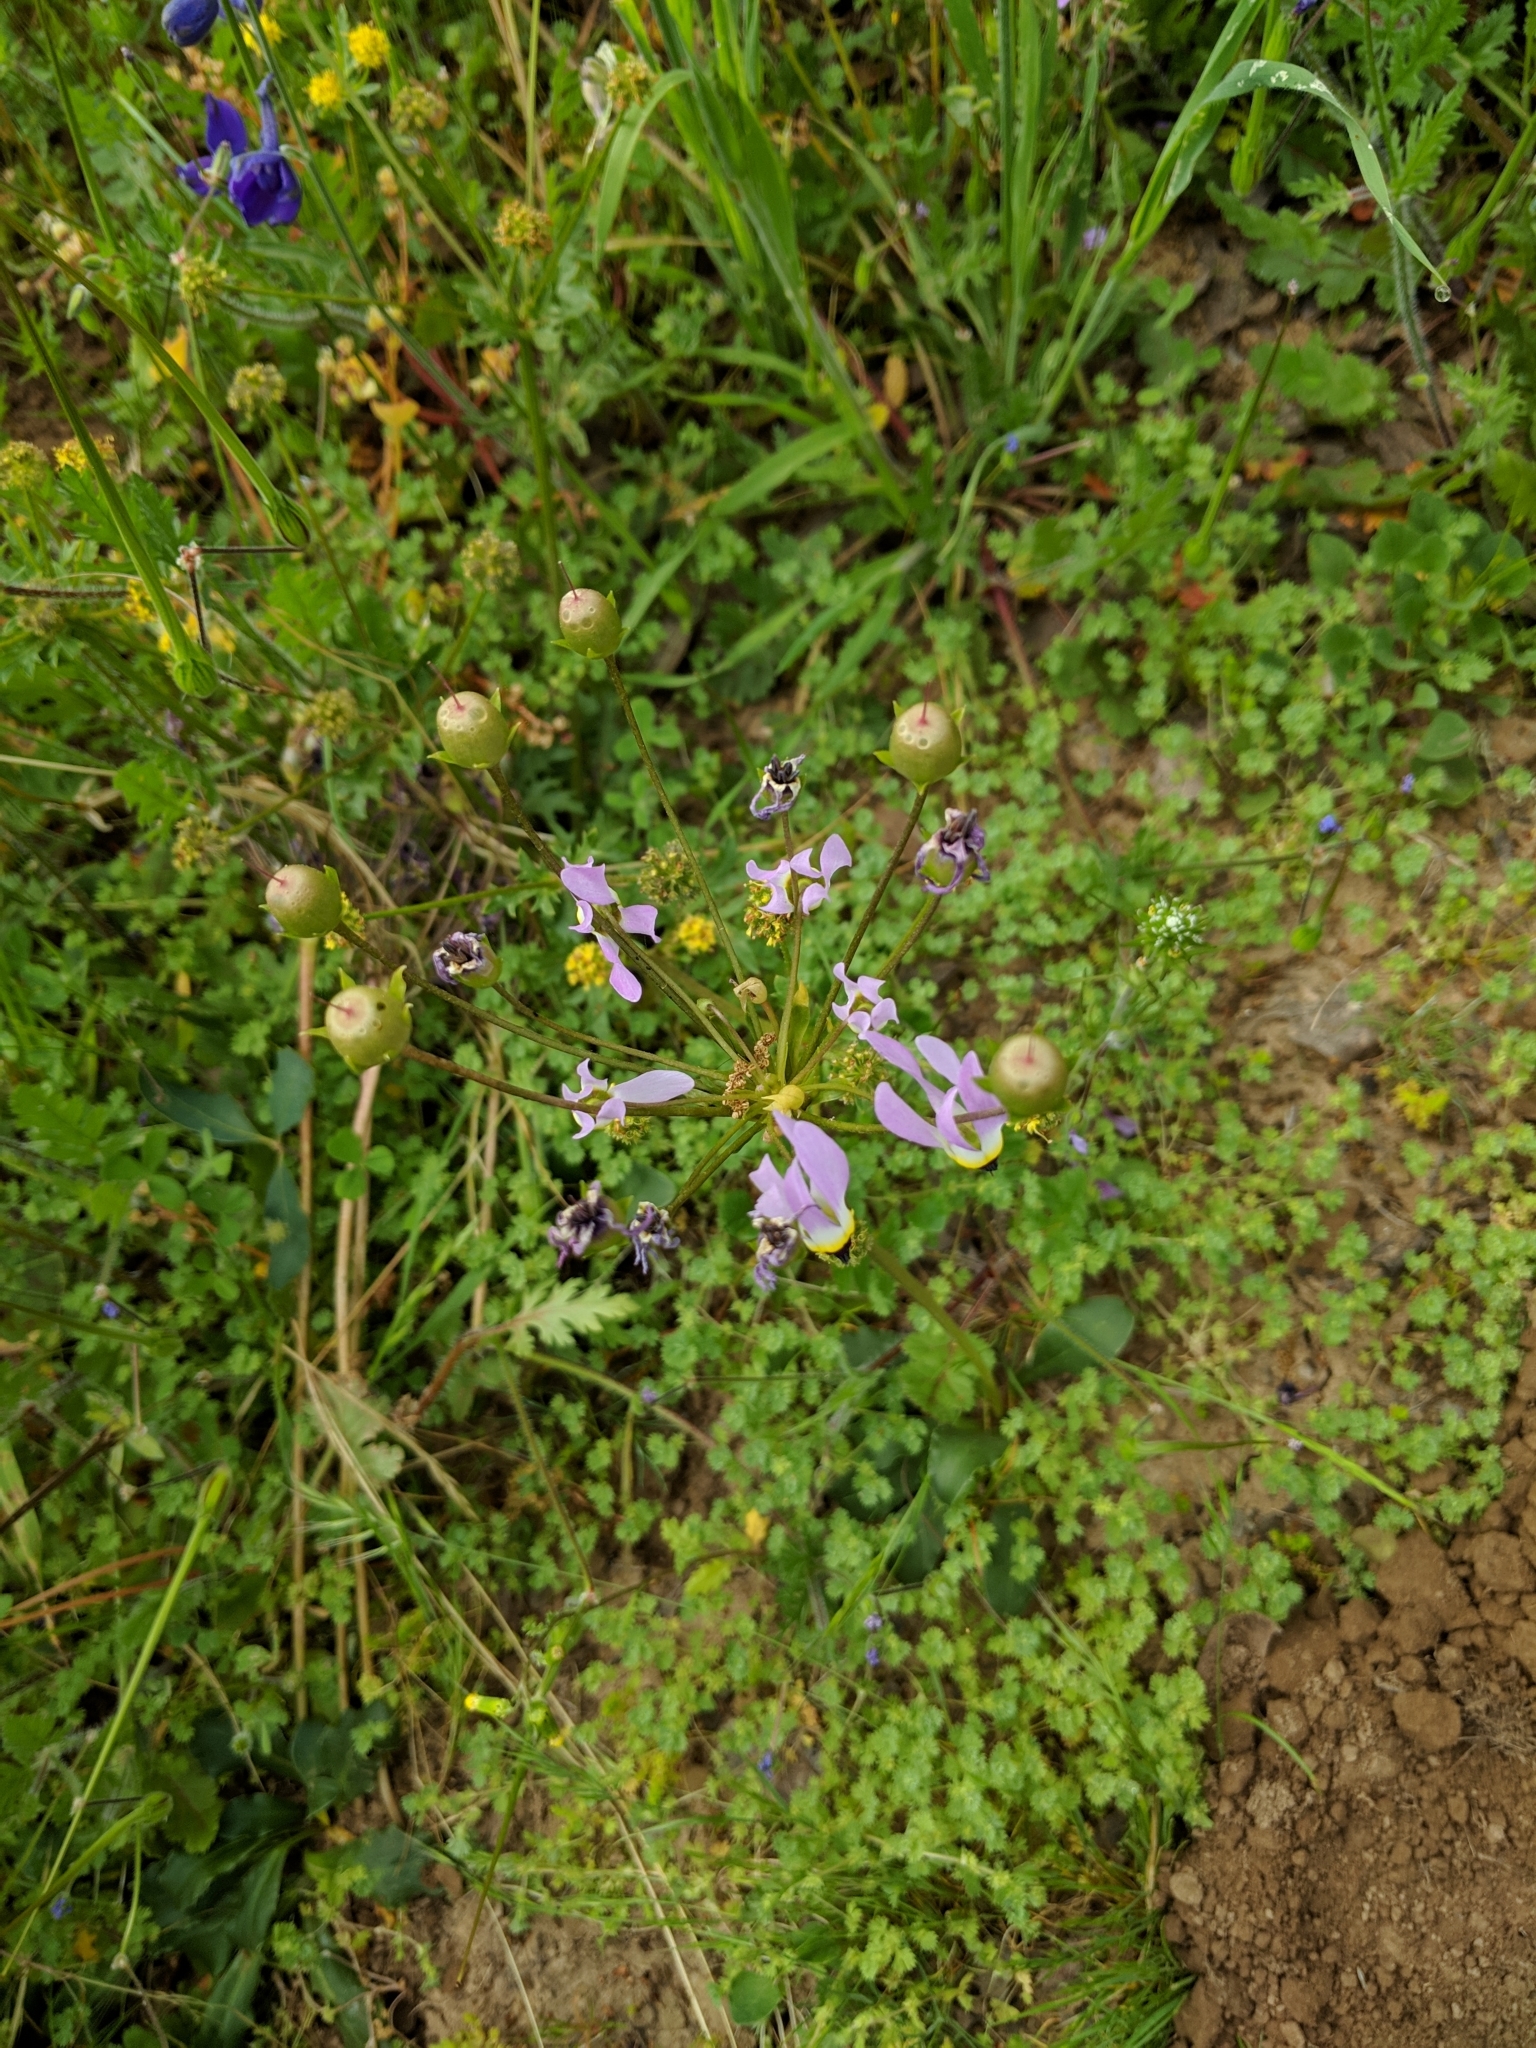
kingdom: Plantae
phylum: Tracheophyta
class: Magnoliopsida
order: Ericales
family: Primulaceae
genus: Dodecatheon
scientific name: Dodecatheon clevelandii
